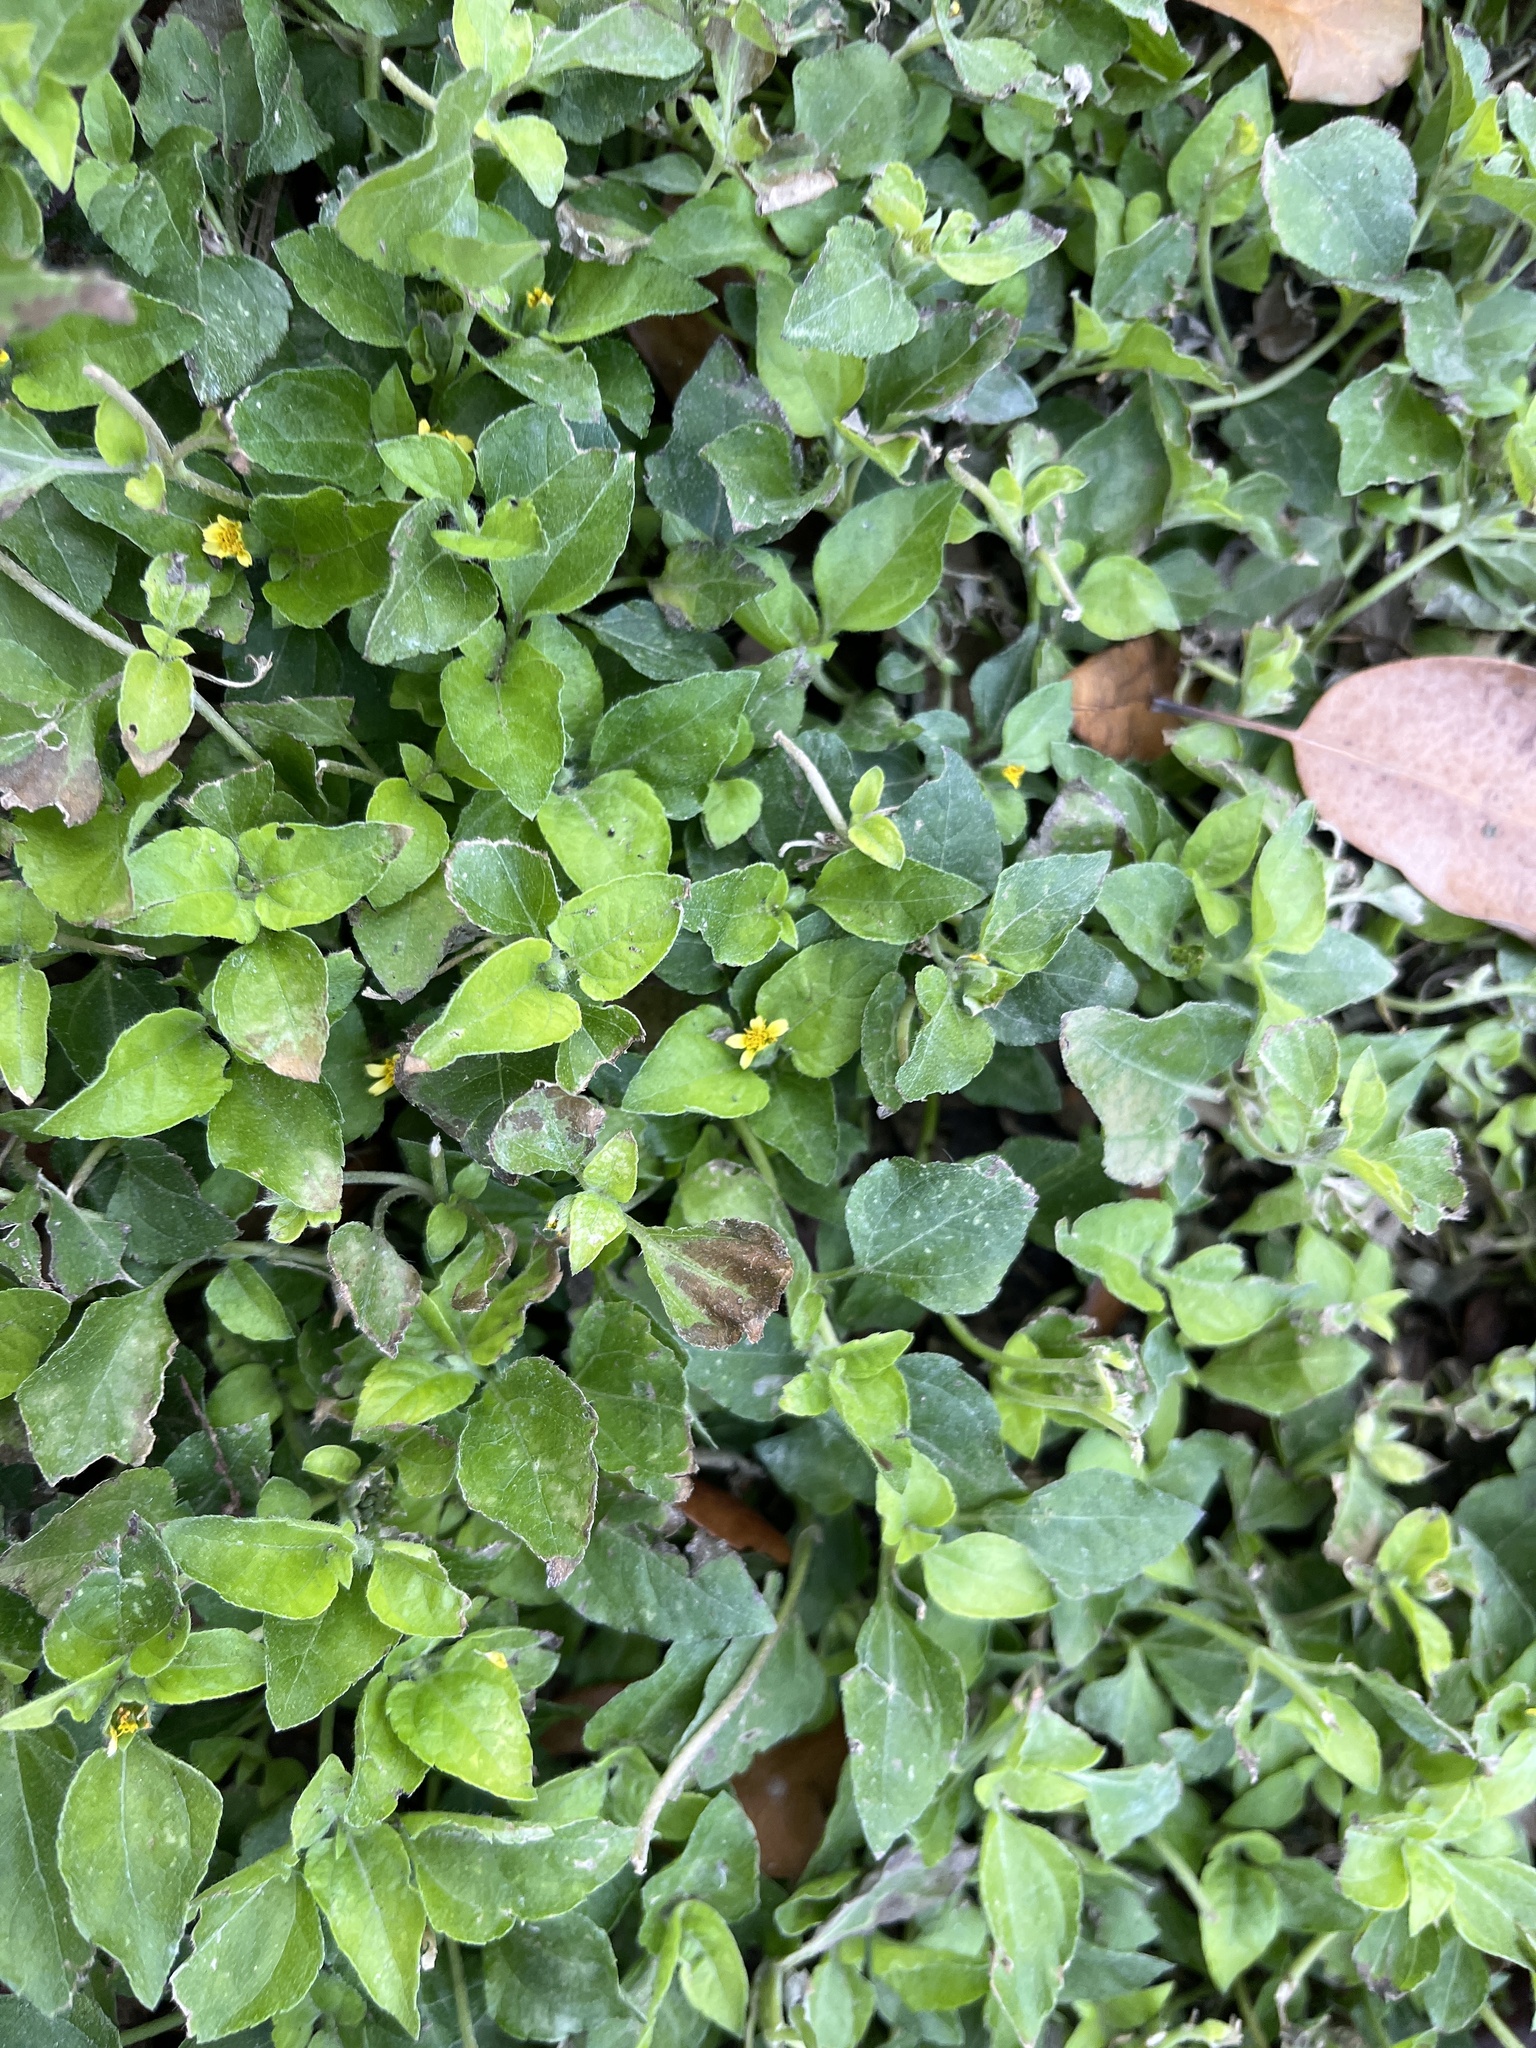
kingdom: Plantae
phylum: Tracheophyta
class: Magnoliopsida
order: Asterales
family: Asteraceae
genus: Calyptocarpus
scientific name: Calyptocarpus vialis
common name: Straggler daisy
